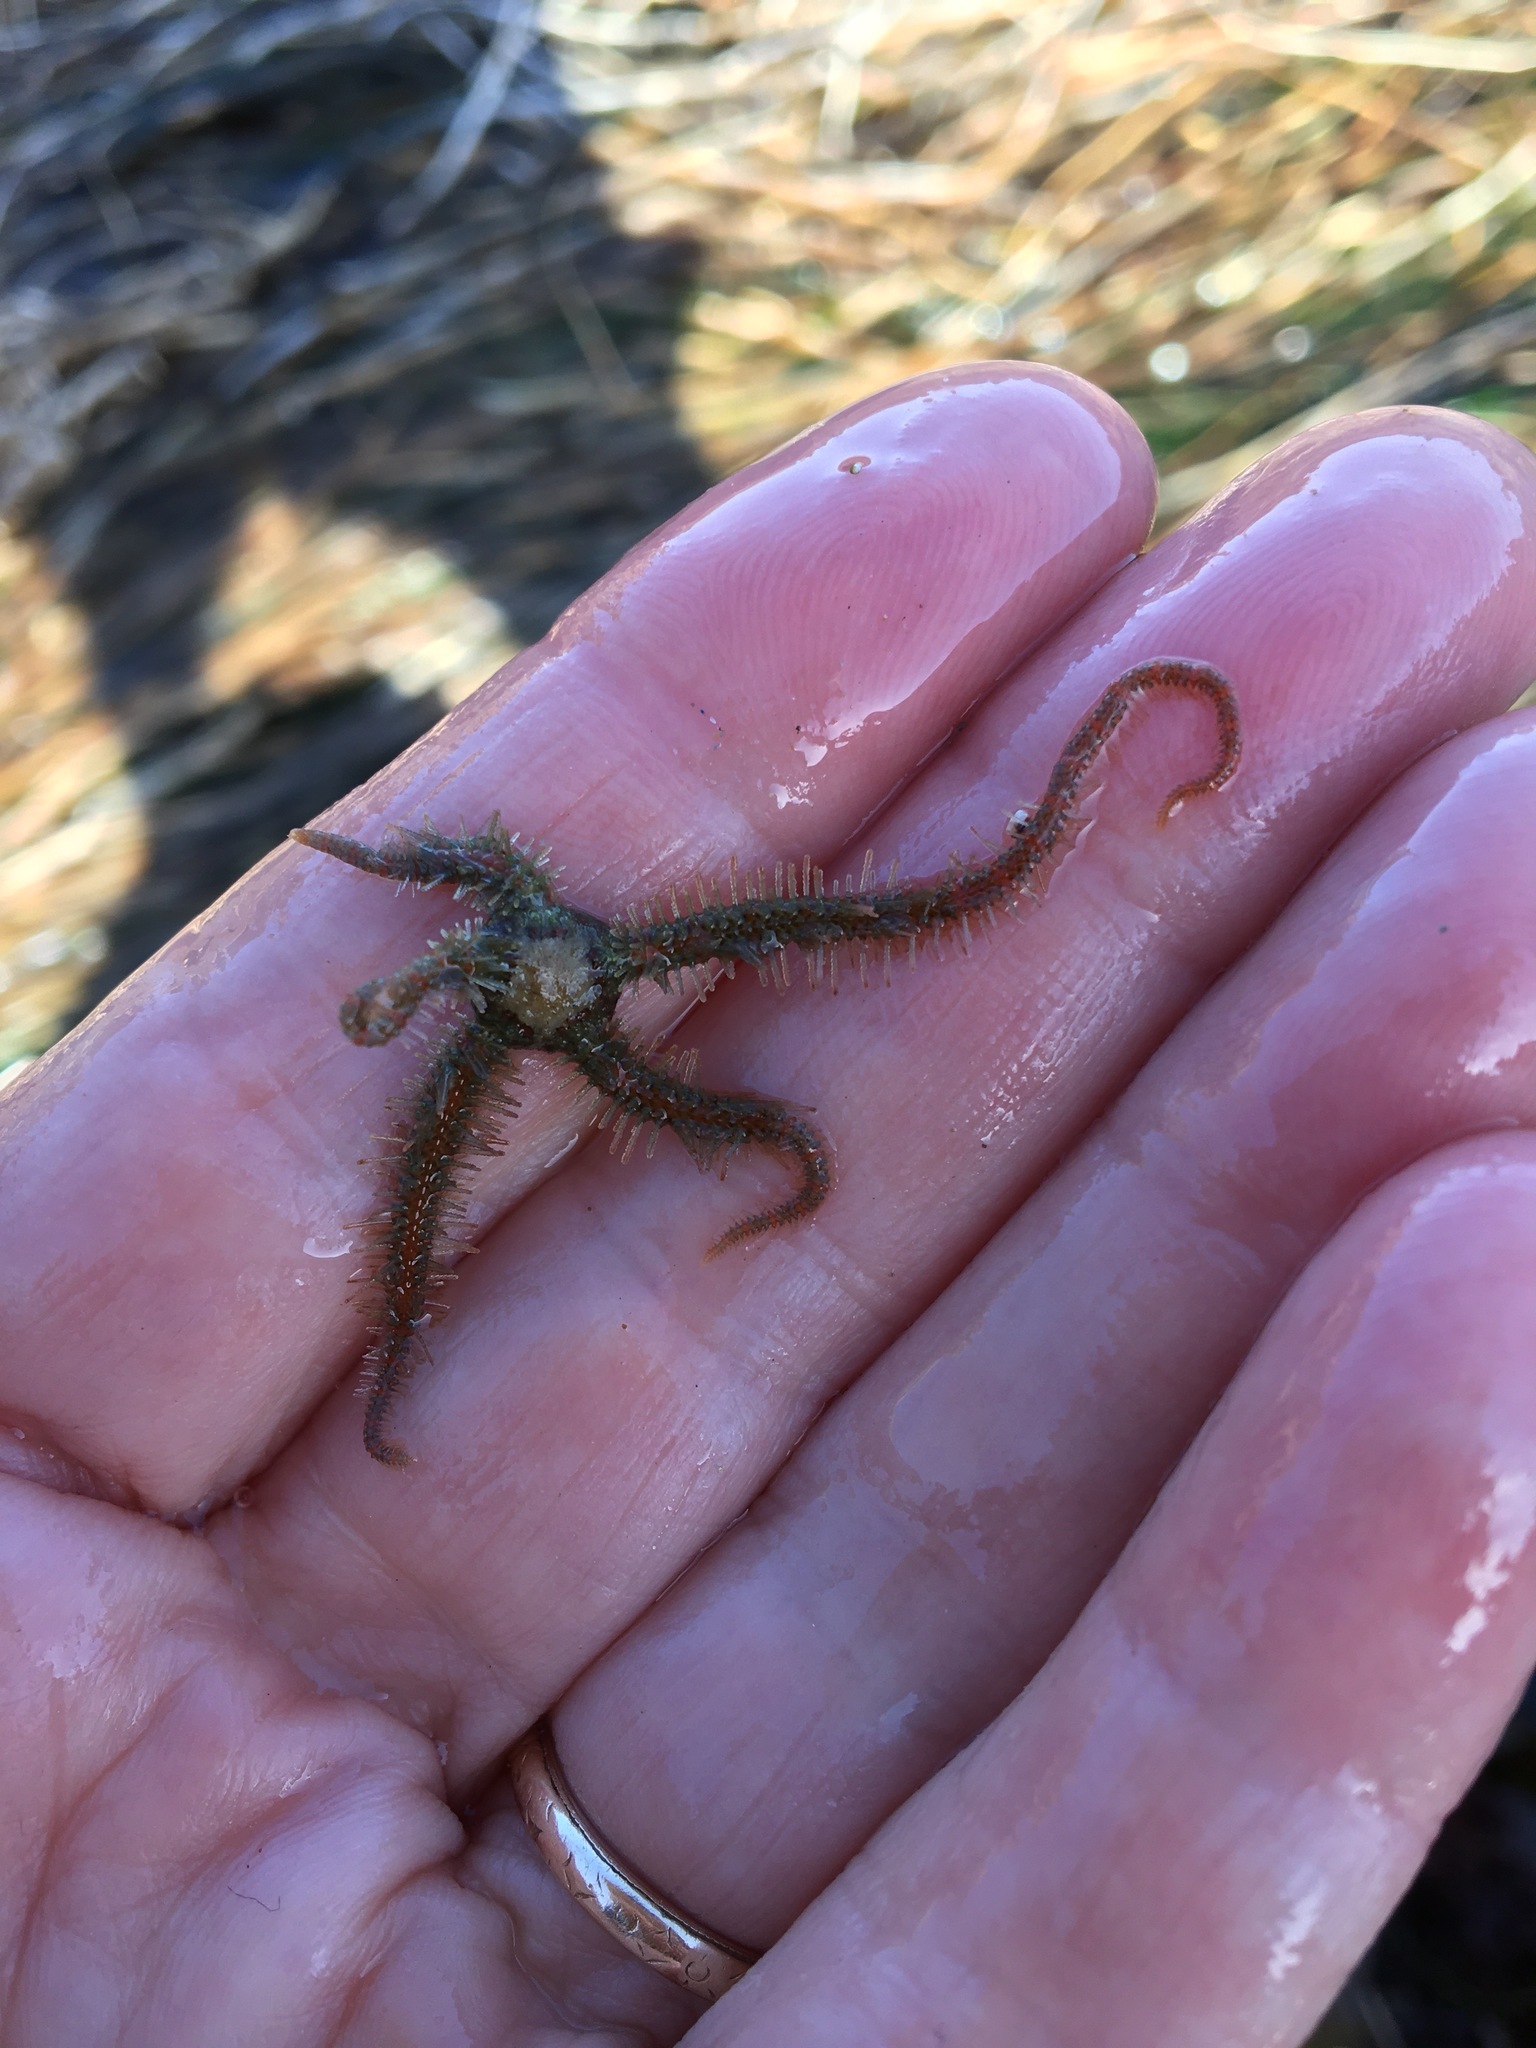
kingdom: Animalia
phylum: Echinodermata
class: Ophiuroidea
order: Amphilepidida
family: Ophiotrichidae
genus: Ophiothrix
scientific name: Ophiothrix spiculata
